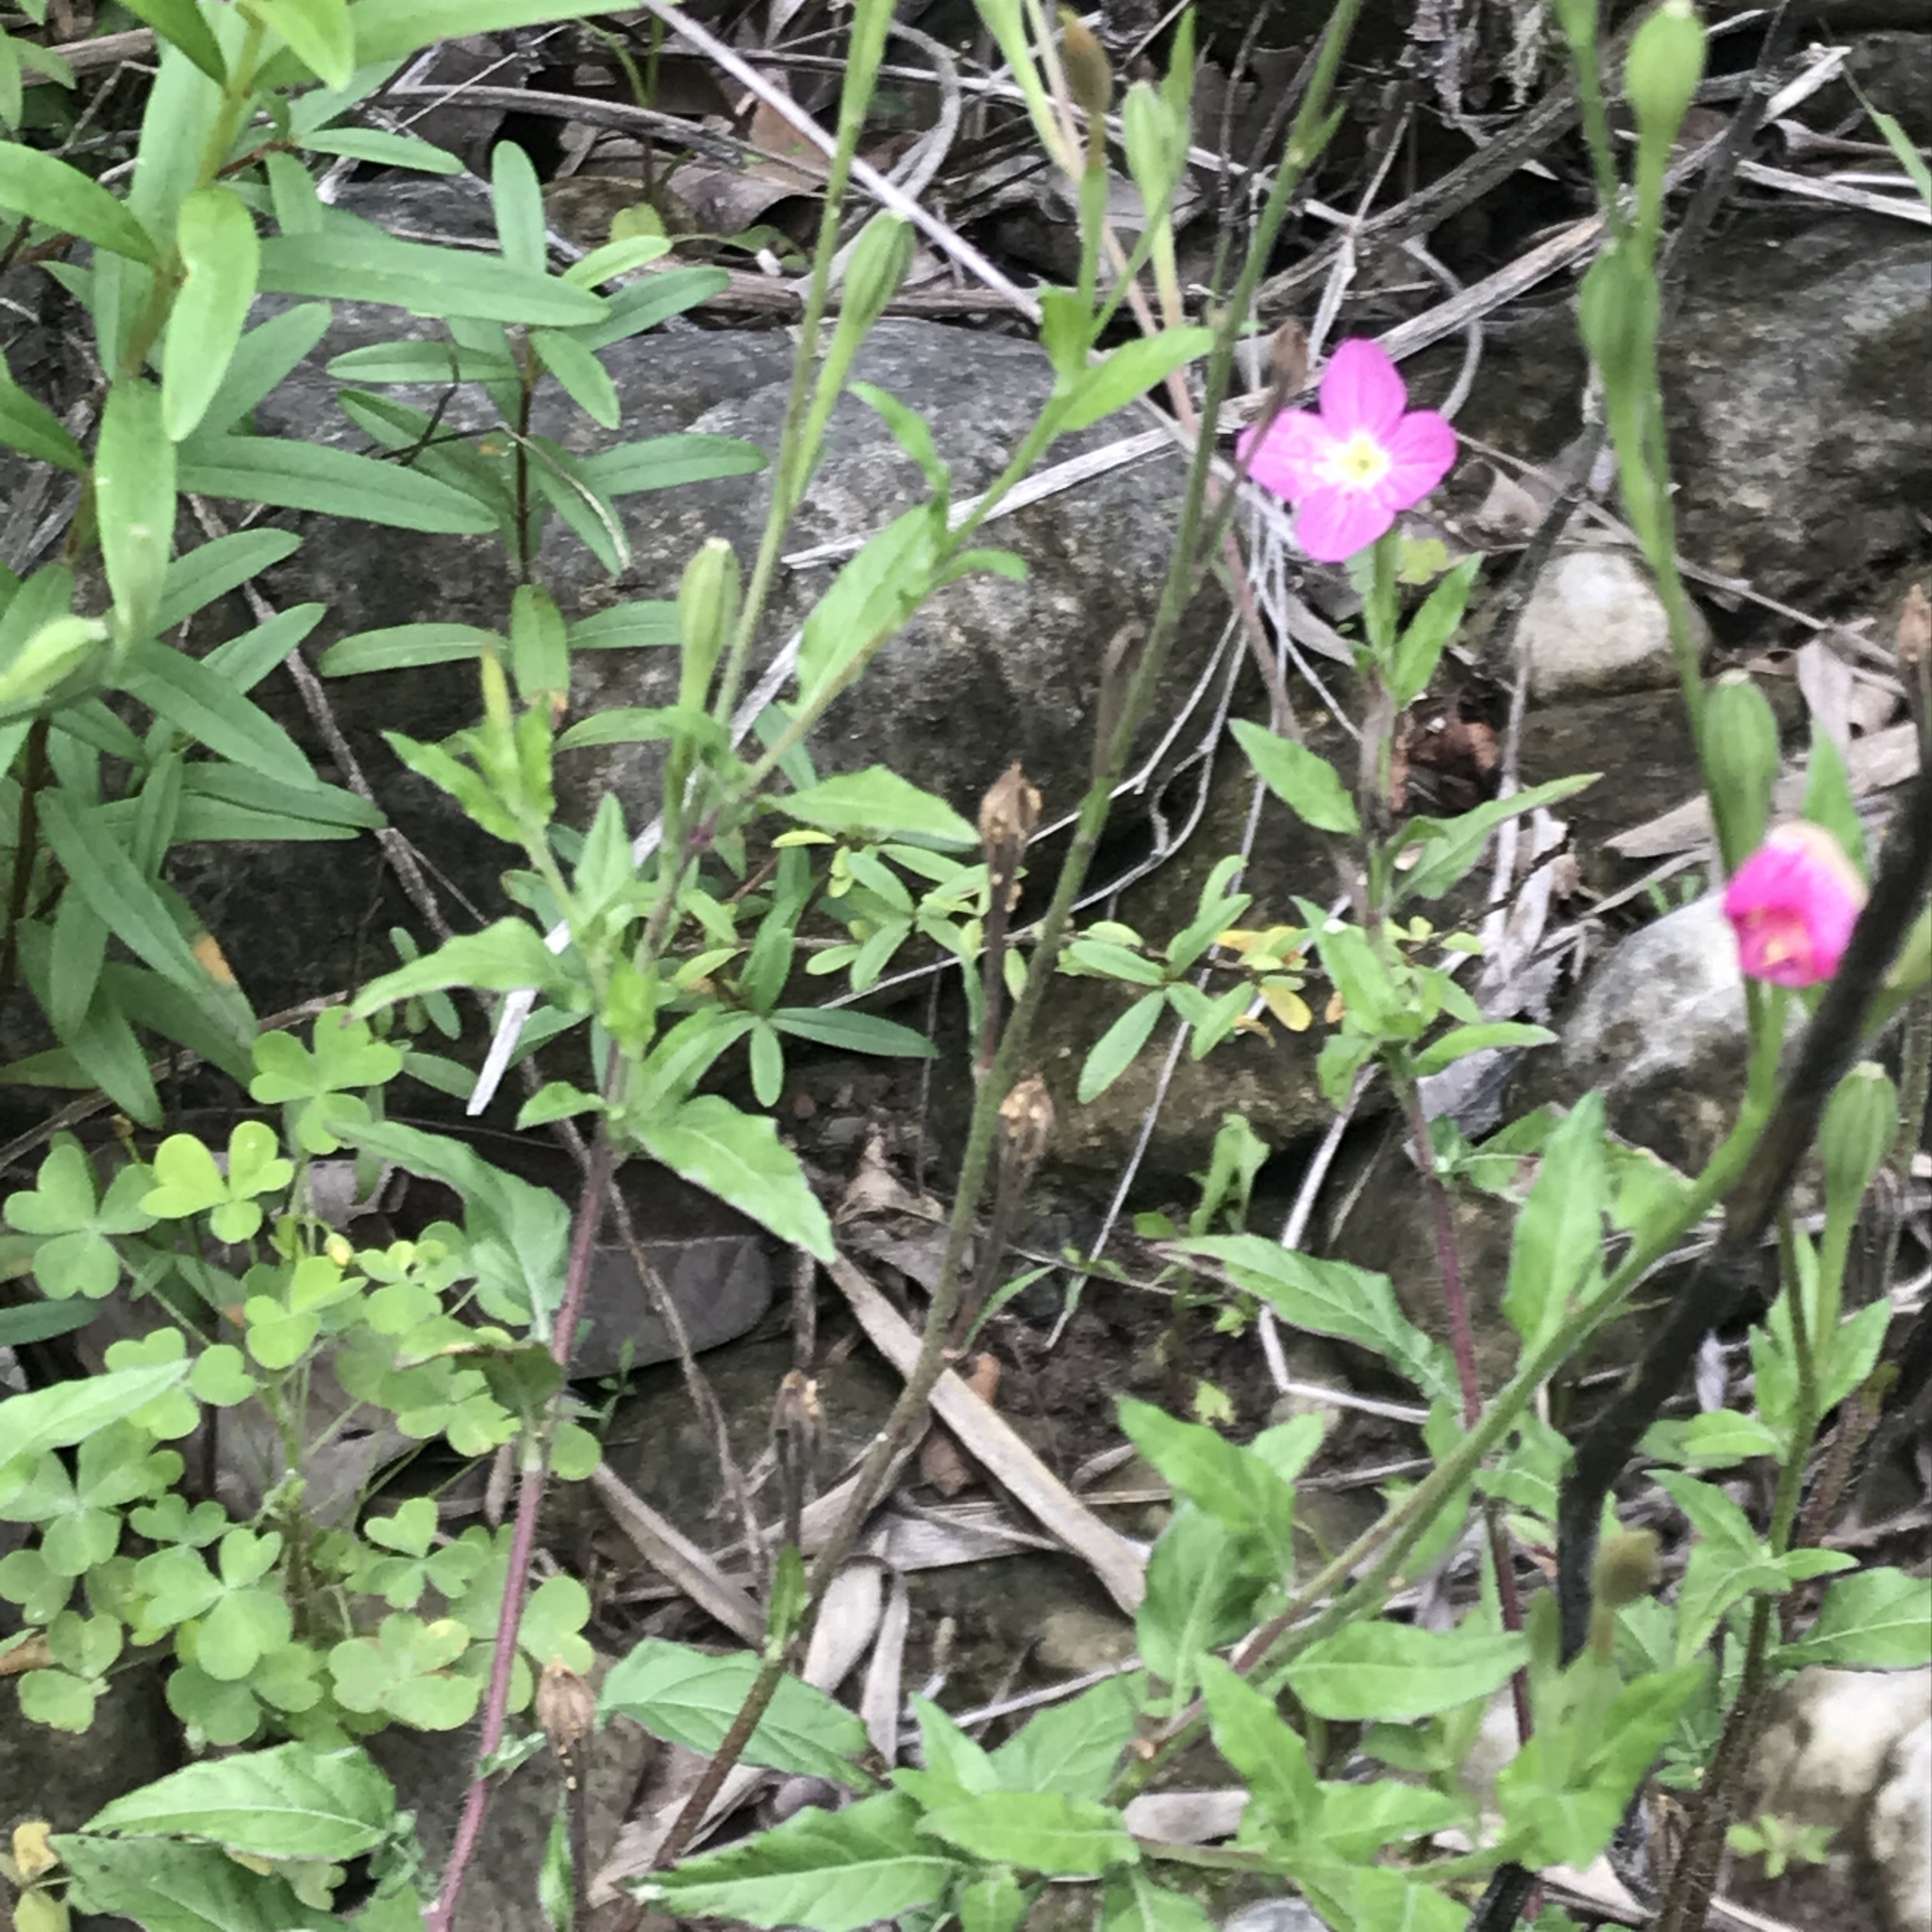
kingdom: Plantae
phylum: Tracheophyta
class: Magnoliopsida
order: Myrtales
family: Onagraceae
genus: Oenothera
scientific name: Oenothera rosea
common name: Rosy evening-primrose
